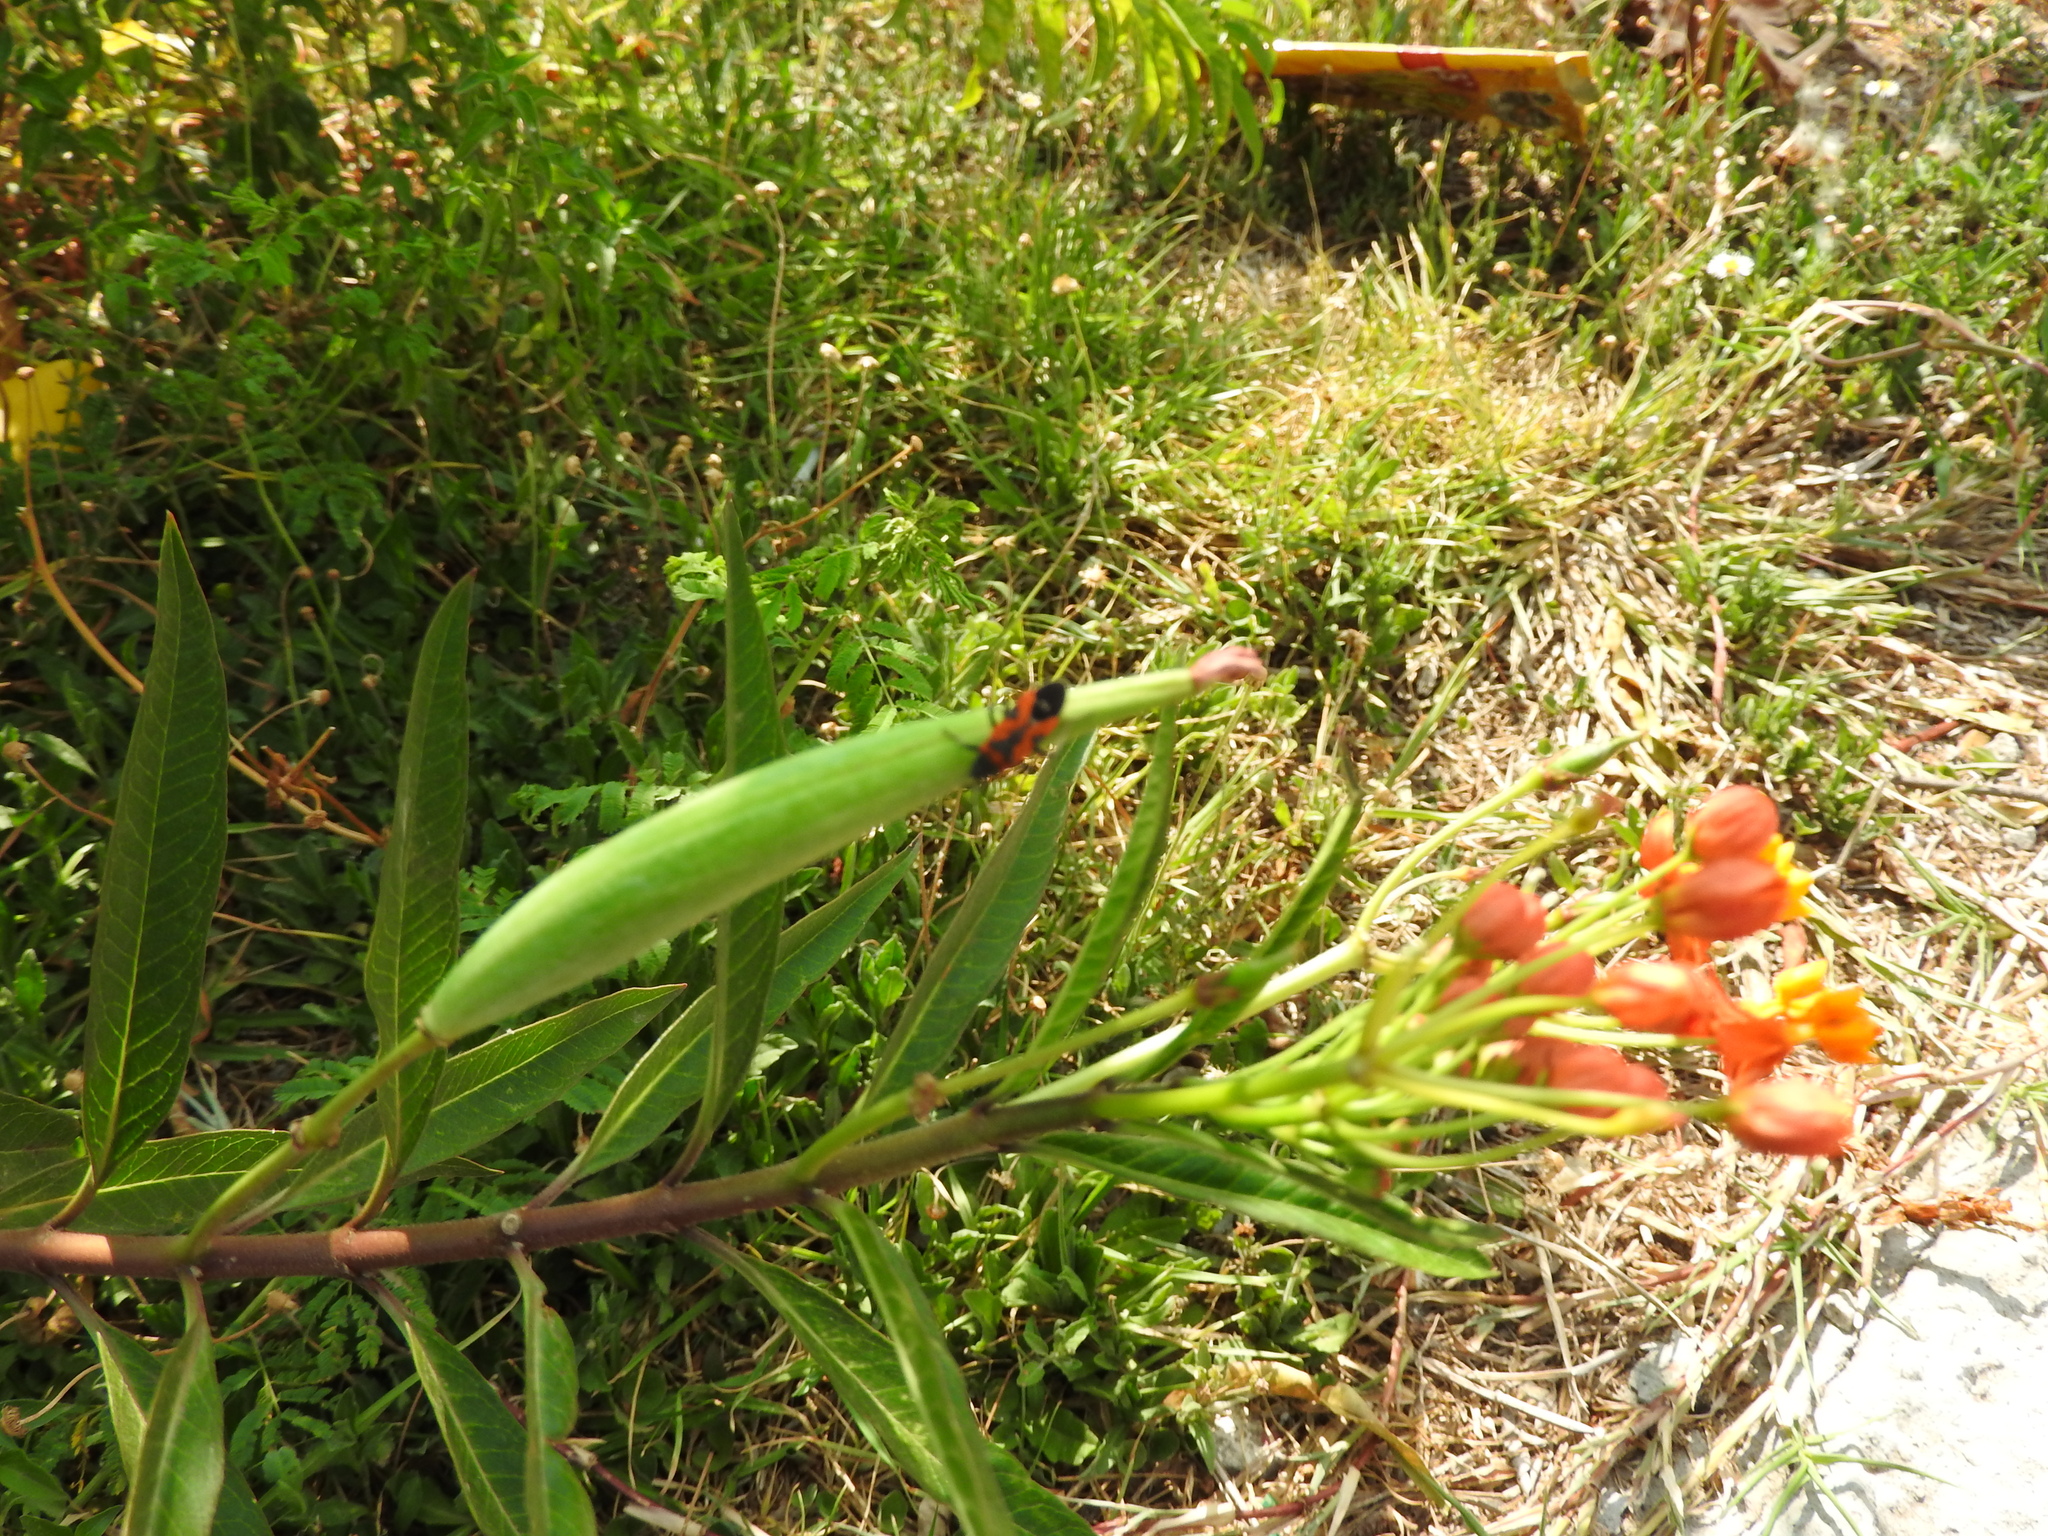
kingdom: Animalia
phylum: Arthropoda
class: Insecta
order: Hemiptera
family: Lygaeidae
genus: Lygaeus
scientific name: Lygaeus reclivatus
